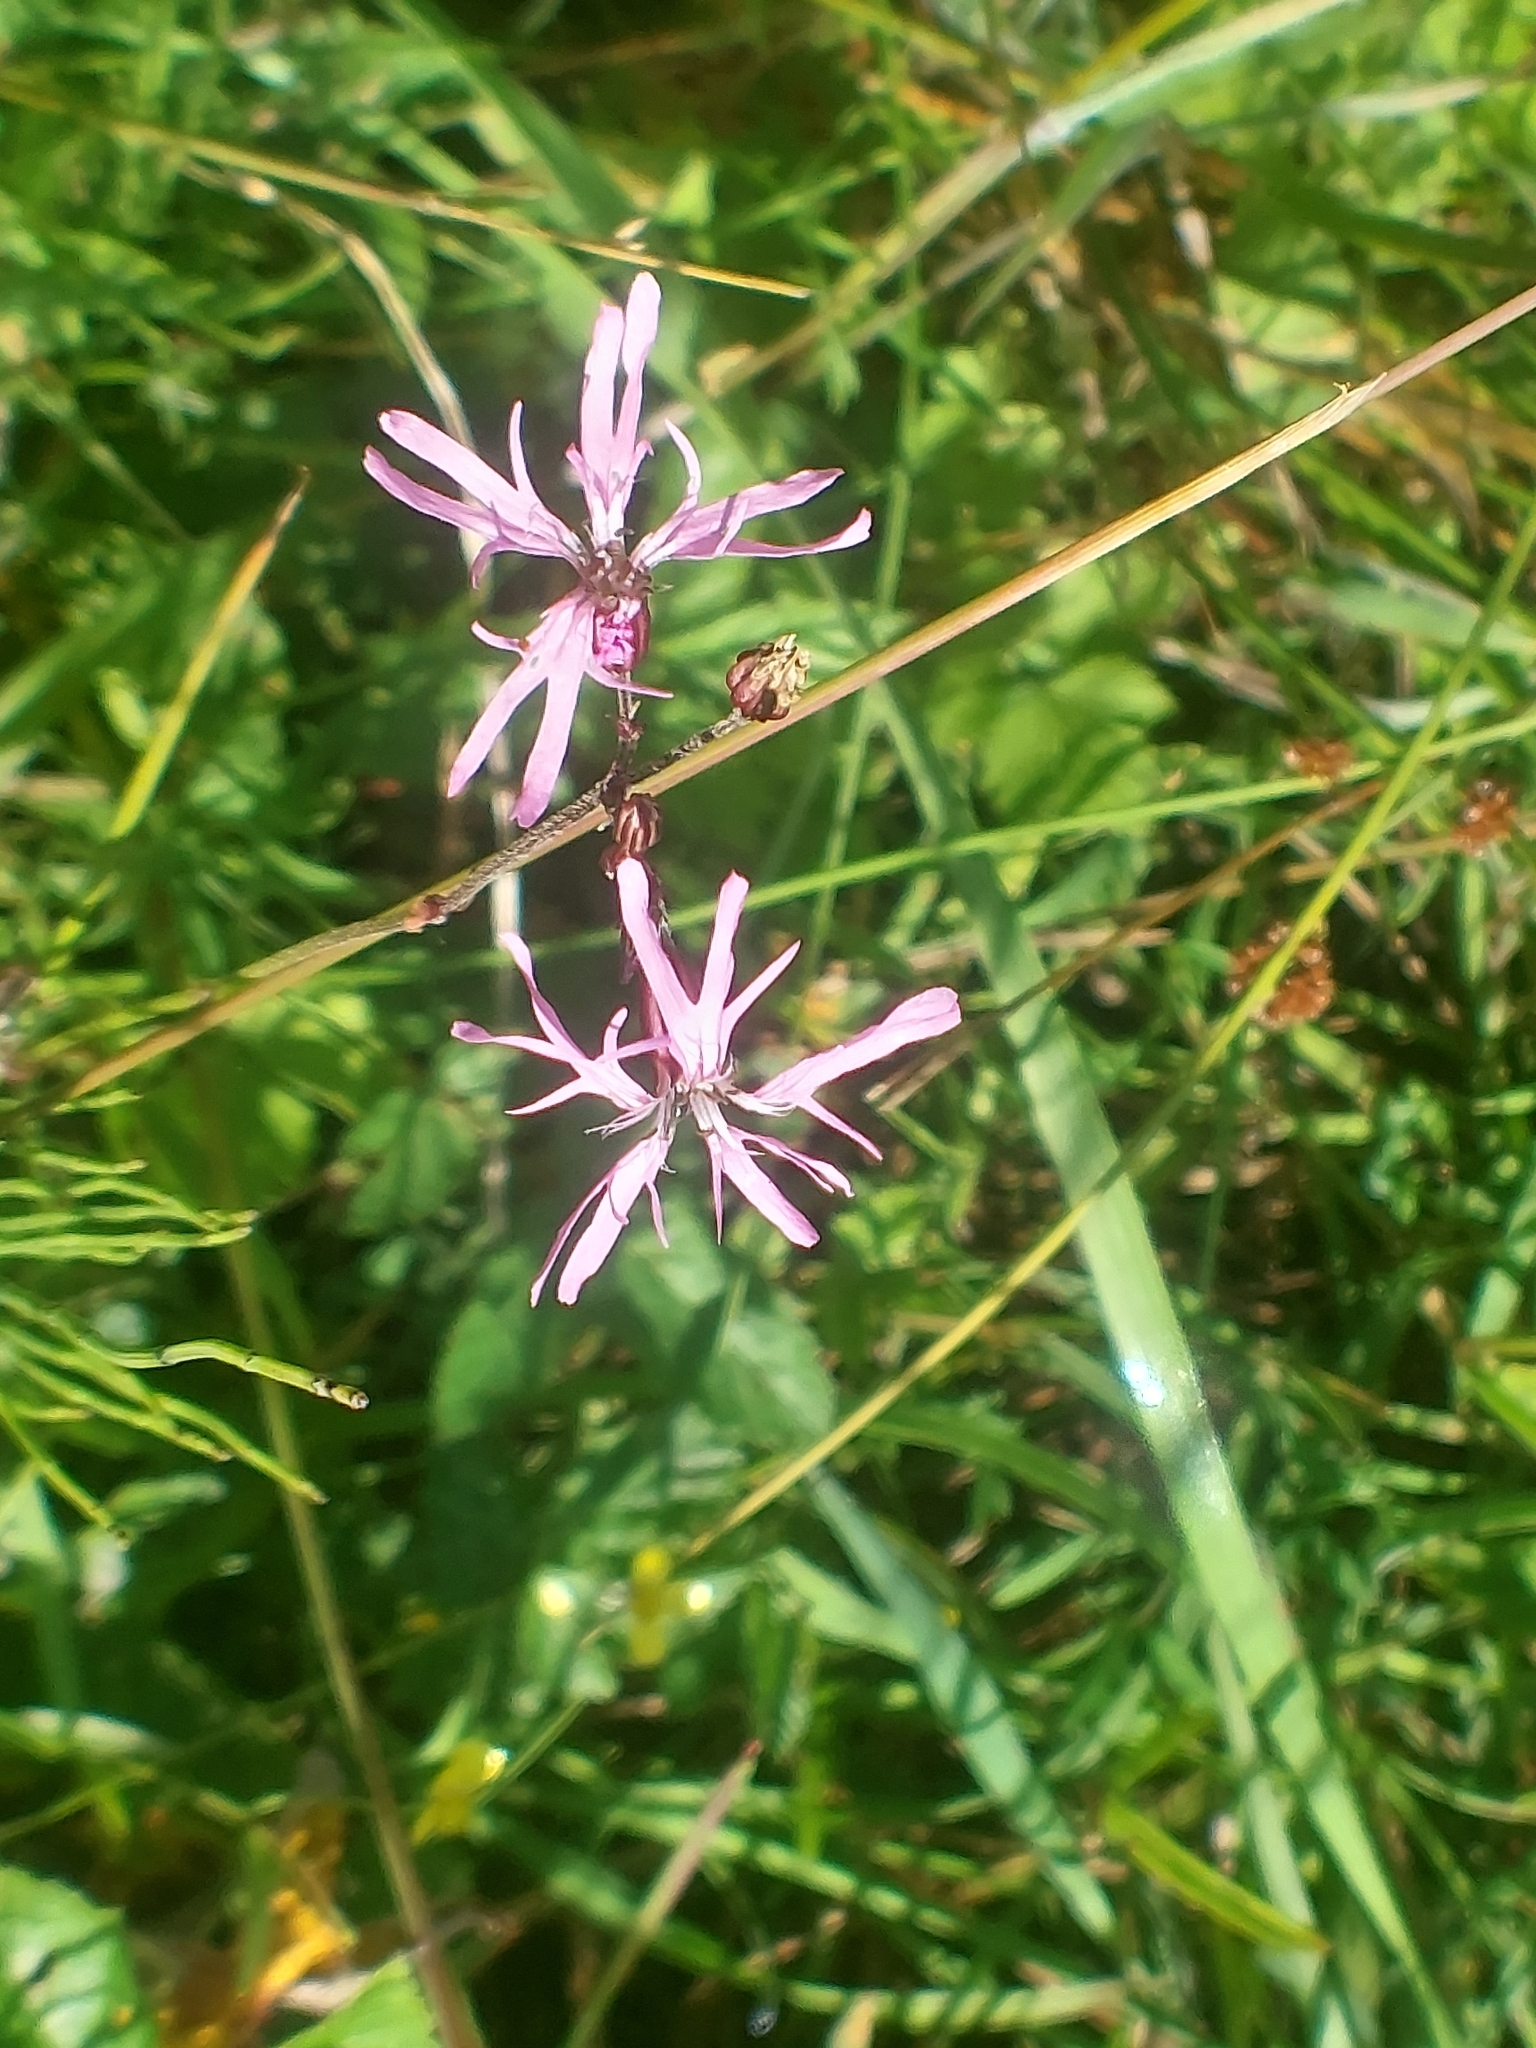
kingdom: Plantae
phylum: Tracheophyta
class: Magnoliopsida
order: Caryophyllales
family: Caryophyllaceae
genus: Silene
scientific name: Silene flos-cuculi
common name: Ragged-robin
